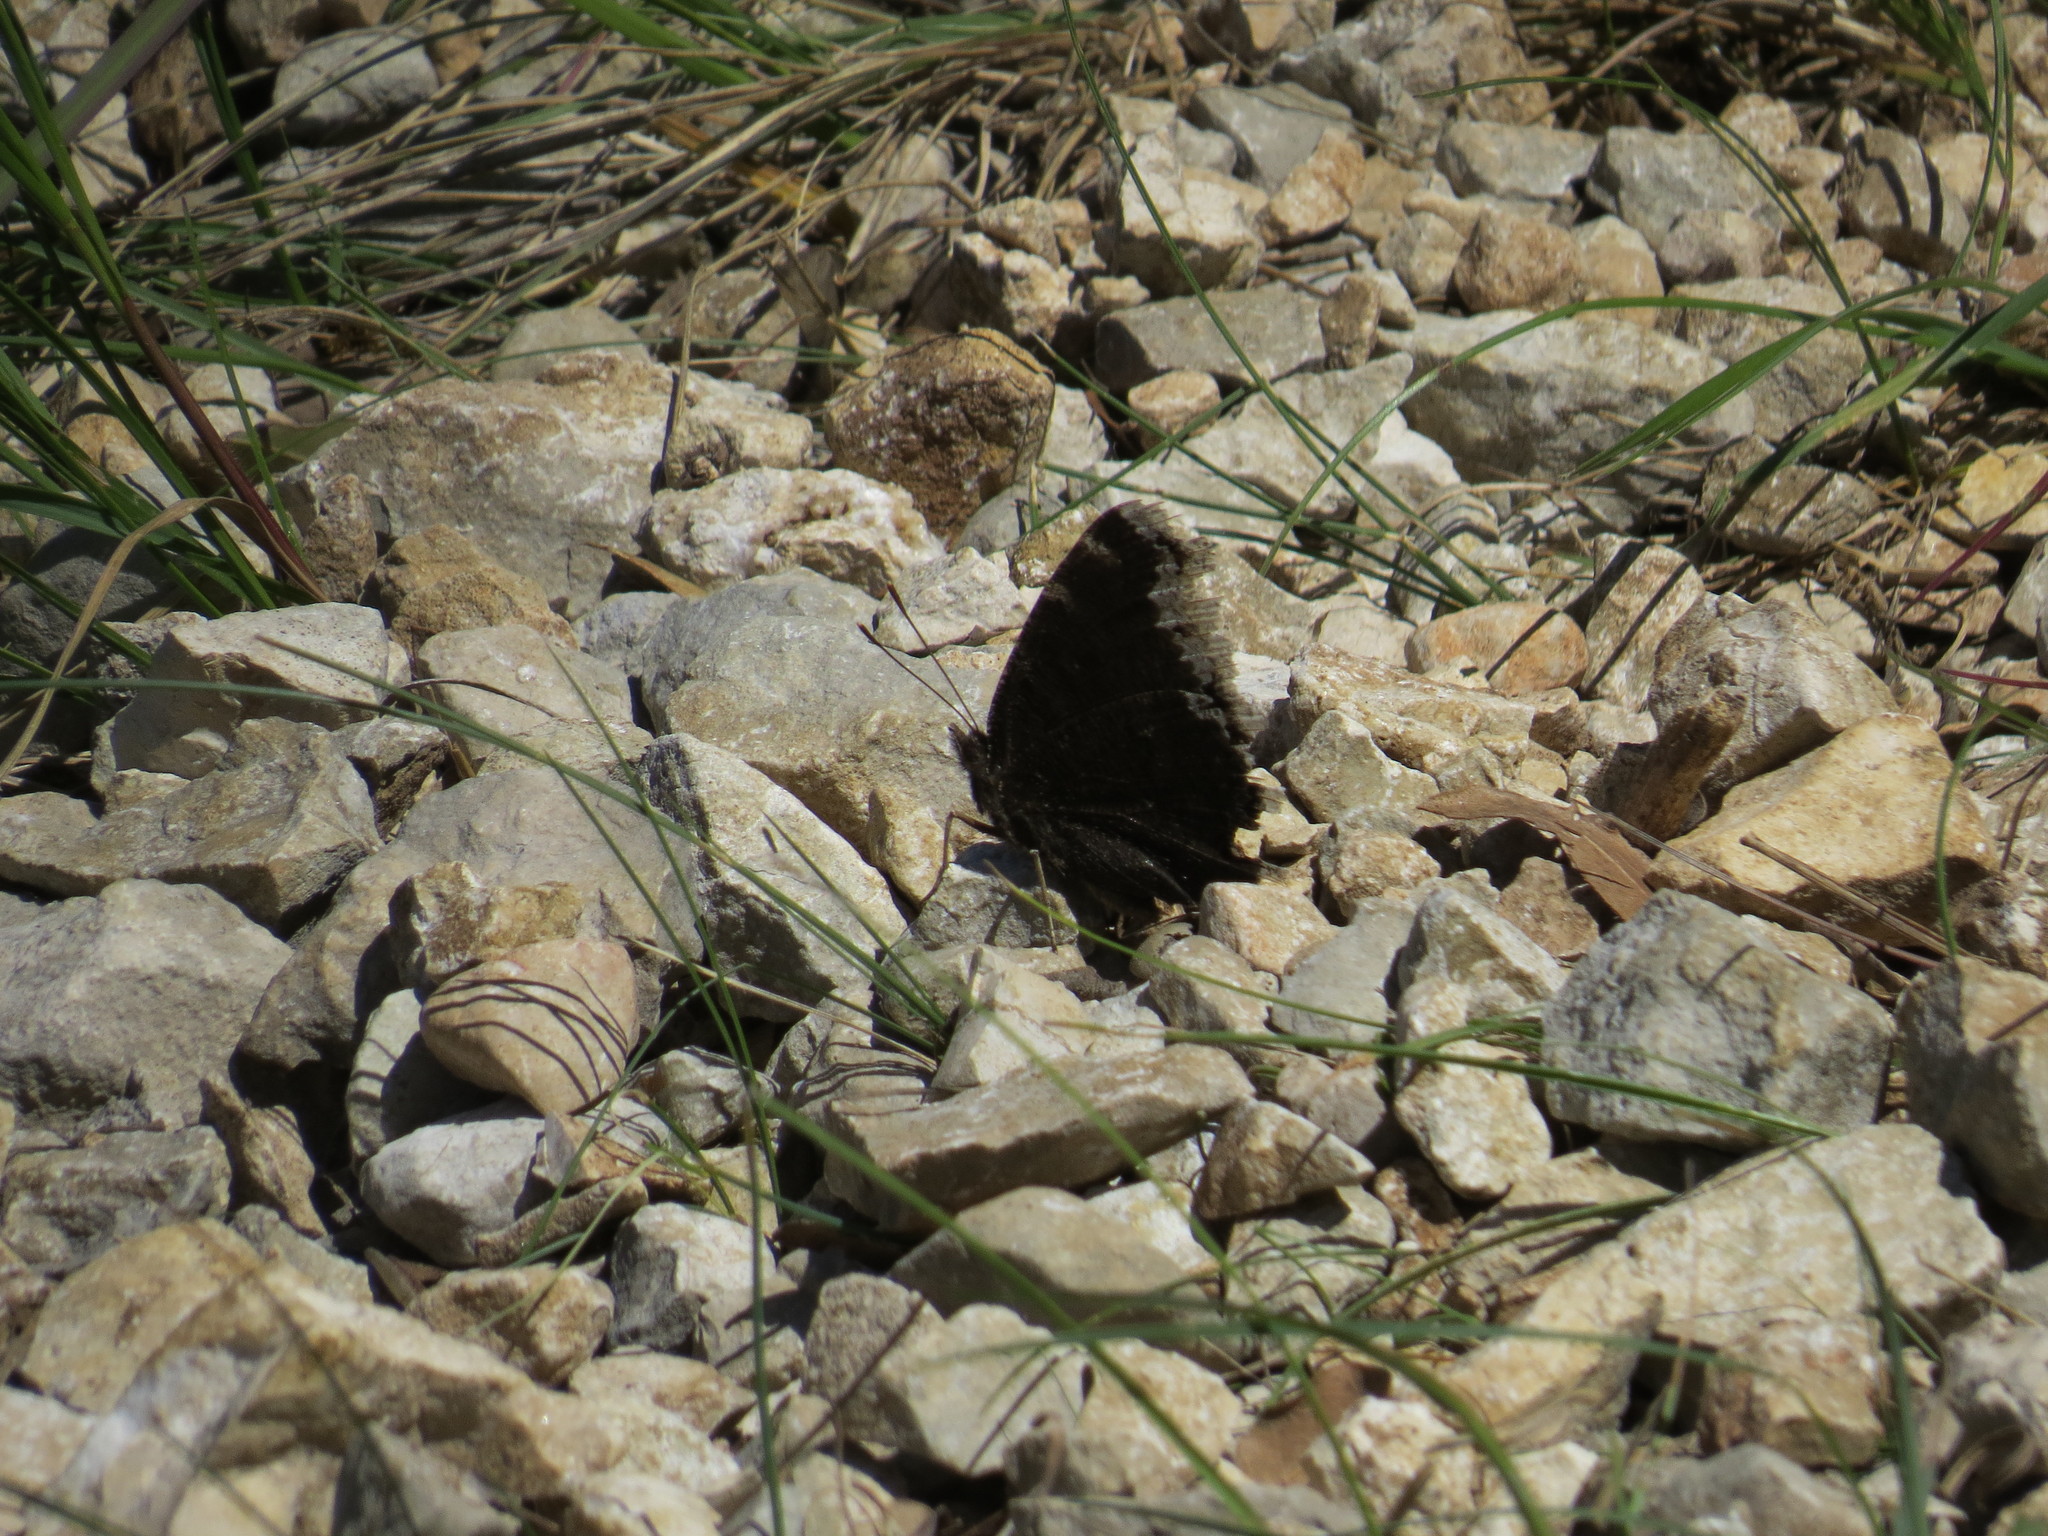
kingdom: Animalia
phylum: Arthropoda
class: Insecta
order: Lepidoptera
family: Nymphalidae
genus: Nymphalis
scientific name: Nymphalis antiopa
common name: Camberwell beauty
